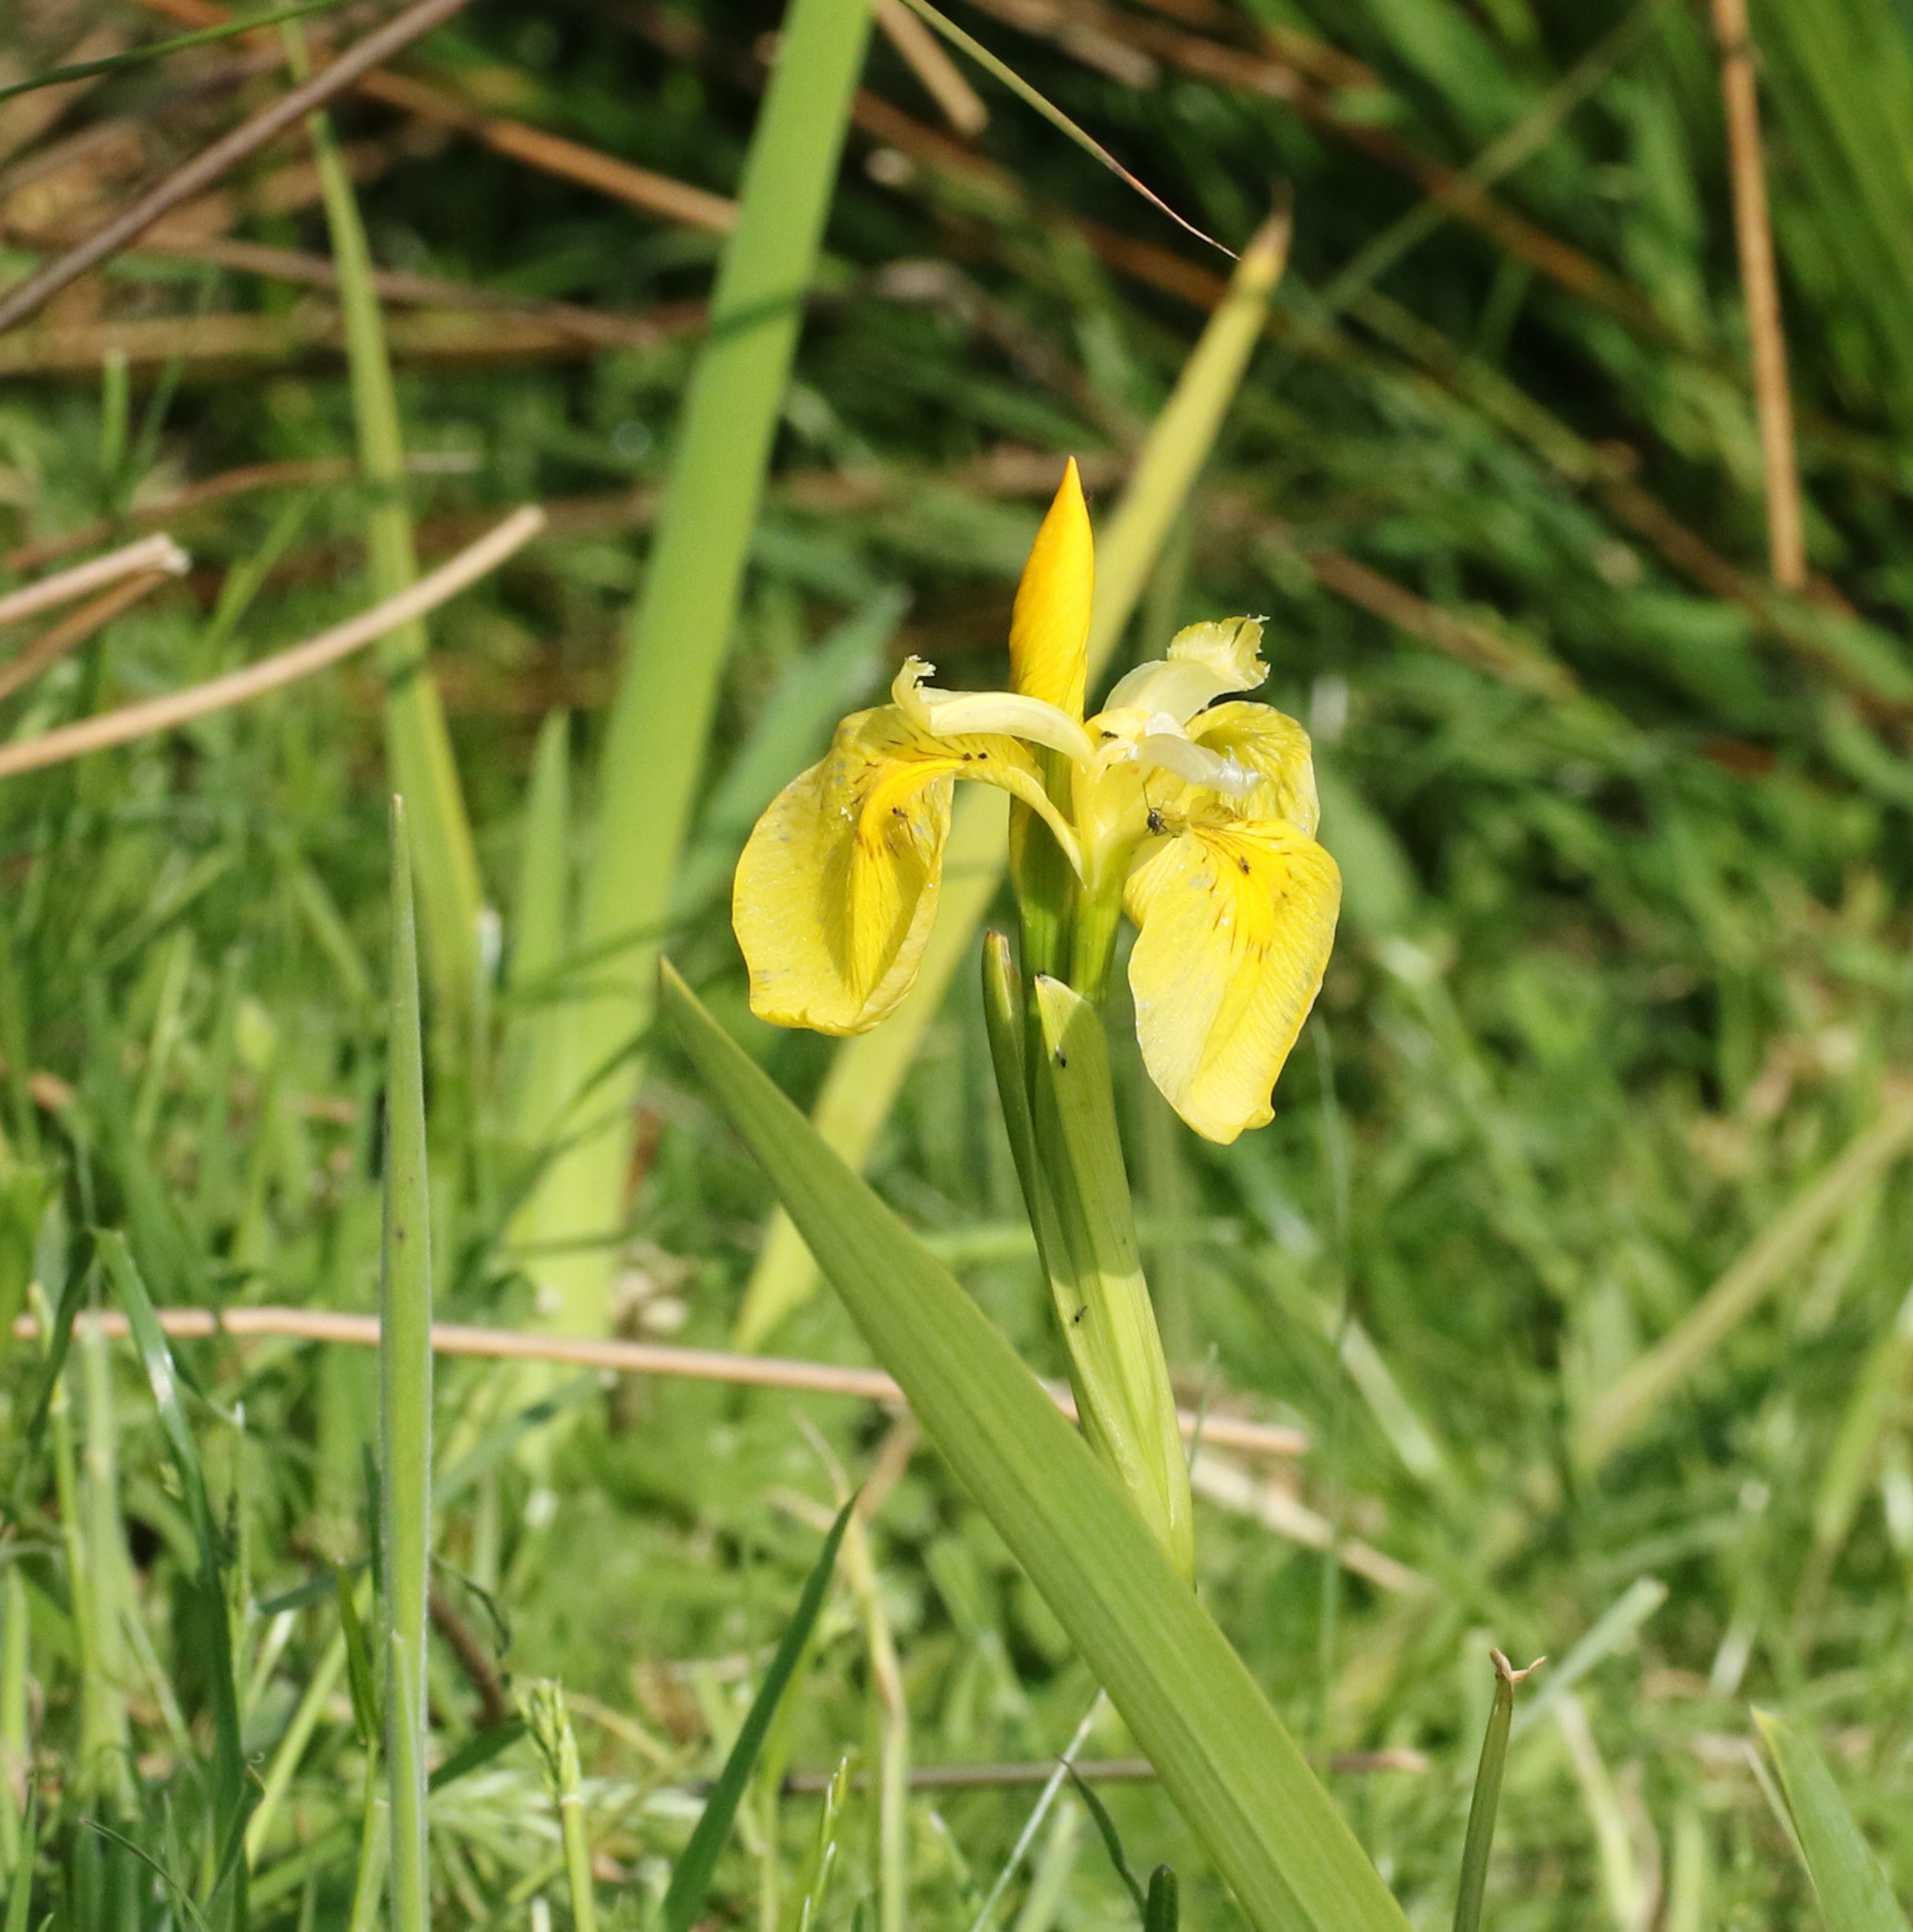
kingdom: Plantae
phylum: Tracheophyta
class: Liliopsida
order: Asparagales
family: Iridaceae
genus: Iris
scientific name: Iris pseudacorus
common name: Yellow flag
